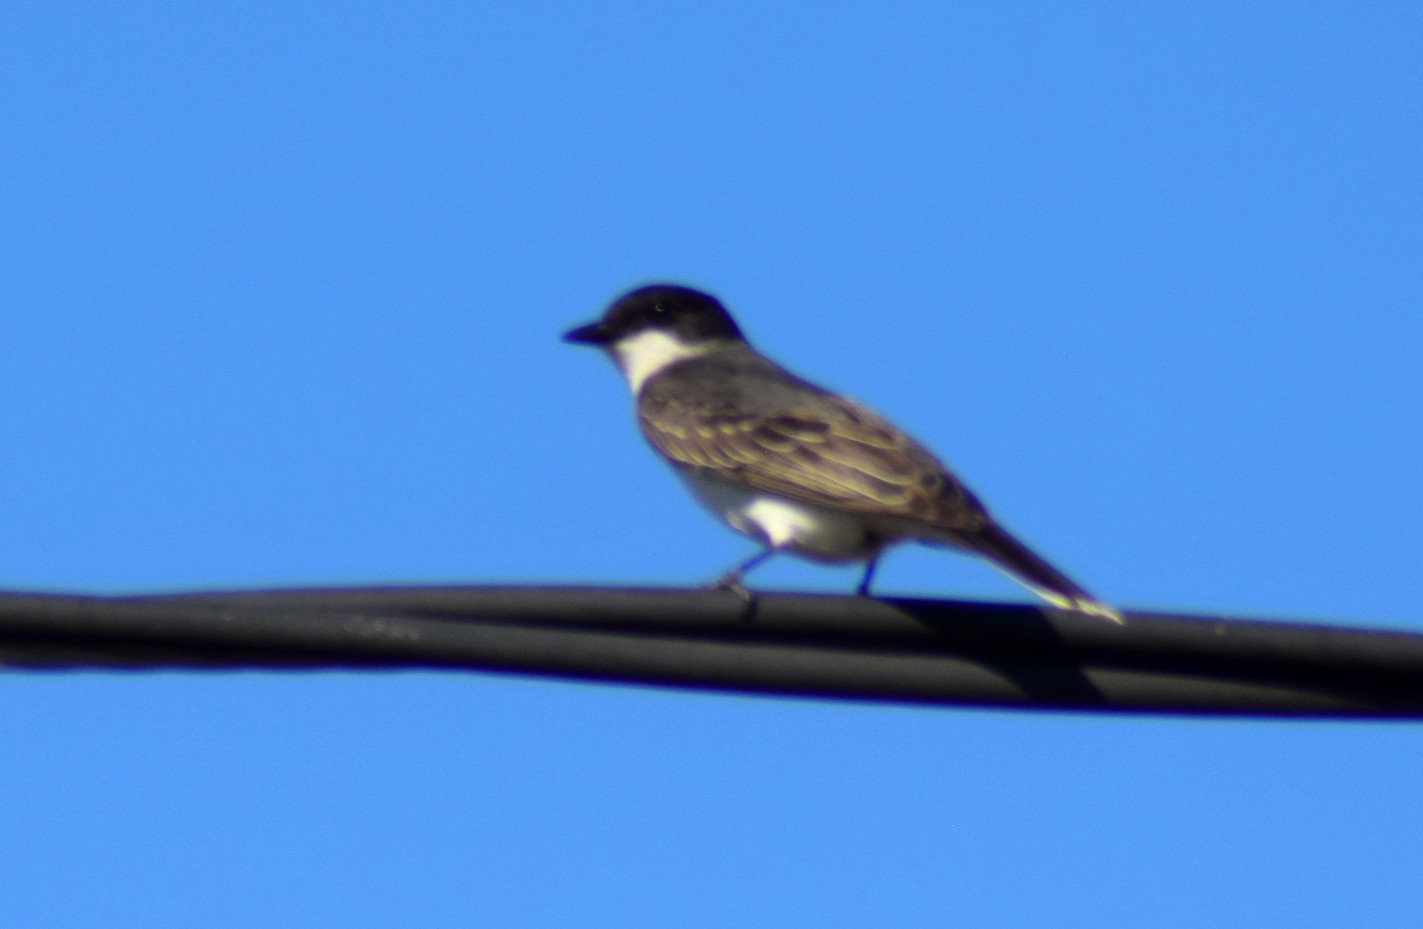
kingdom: Animalia
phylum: Chordata
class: Aves
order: Passeriformes
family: Tyrannidae
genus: Tyrannus
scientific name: Tyrannus tyrannus
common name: Eastern kingbird
